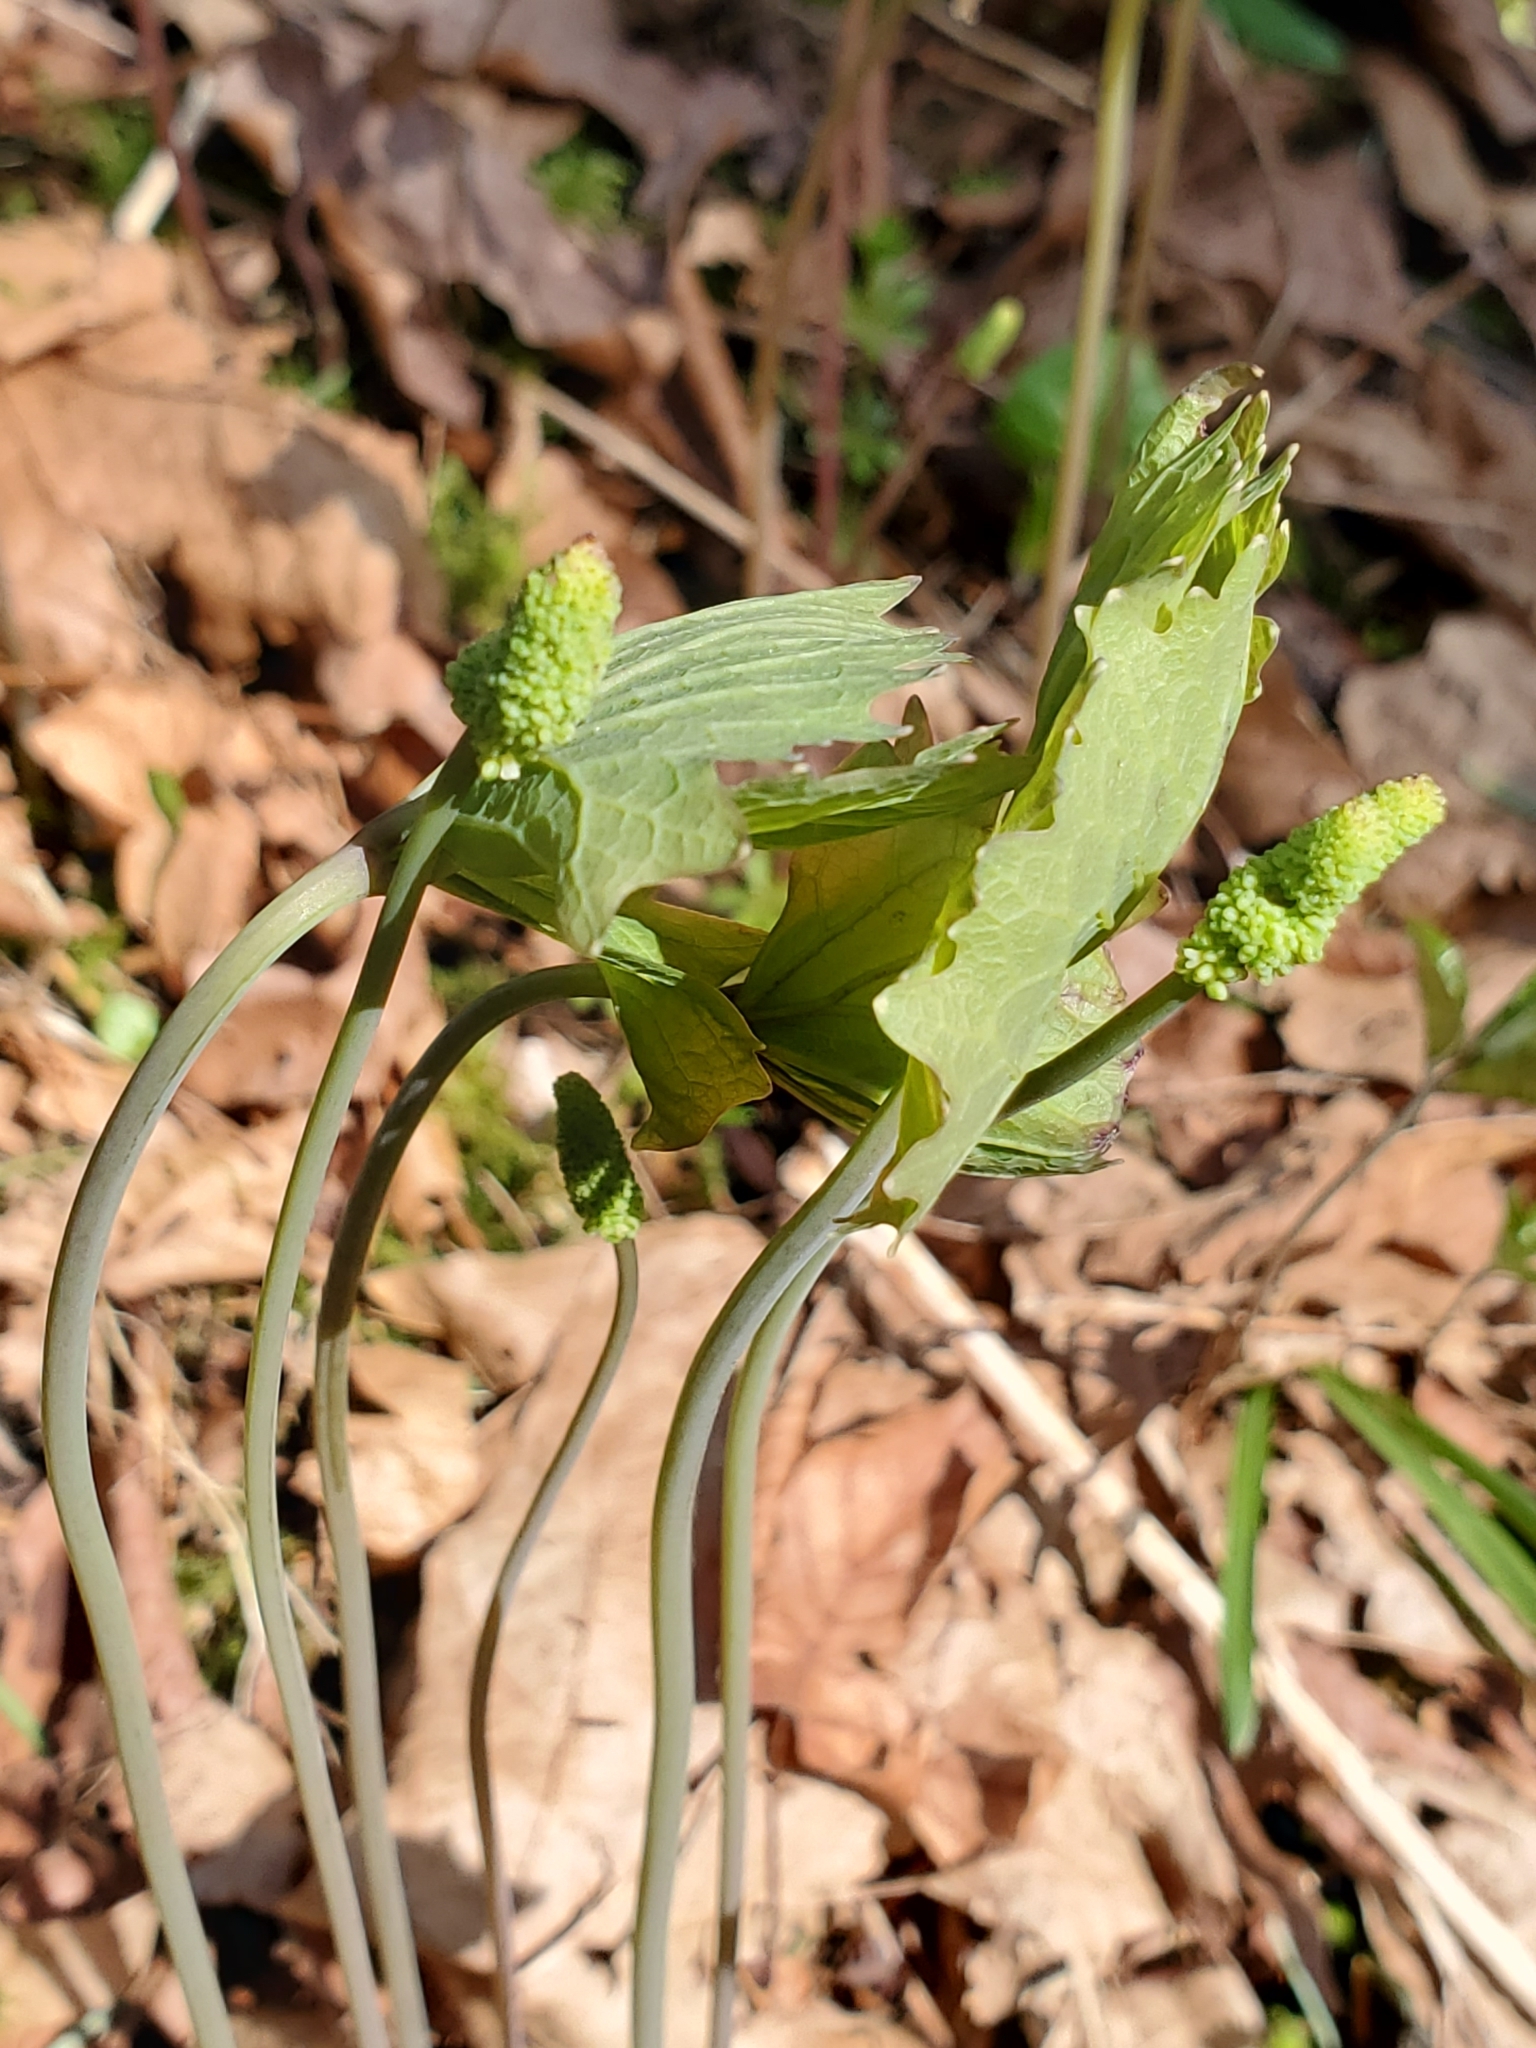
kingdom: Plantae
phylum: Tracheophyta
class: Magnoliopsida
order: Ranunculales
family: Berberidaceae
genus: Achlys
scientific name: Achlys triphylla
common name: Vanilla-leaf
